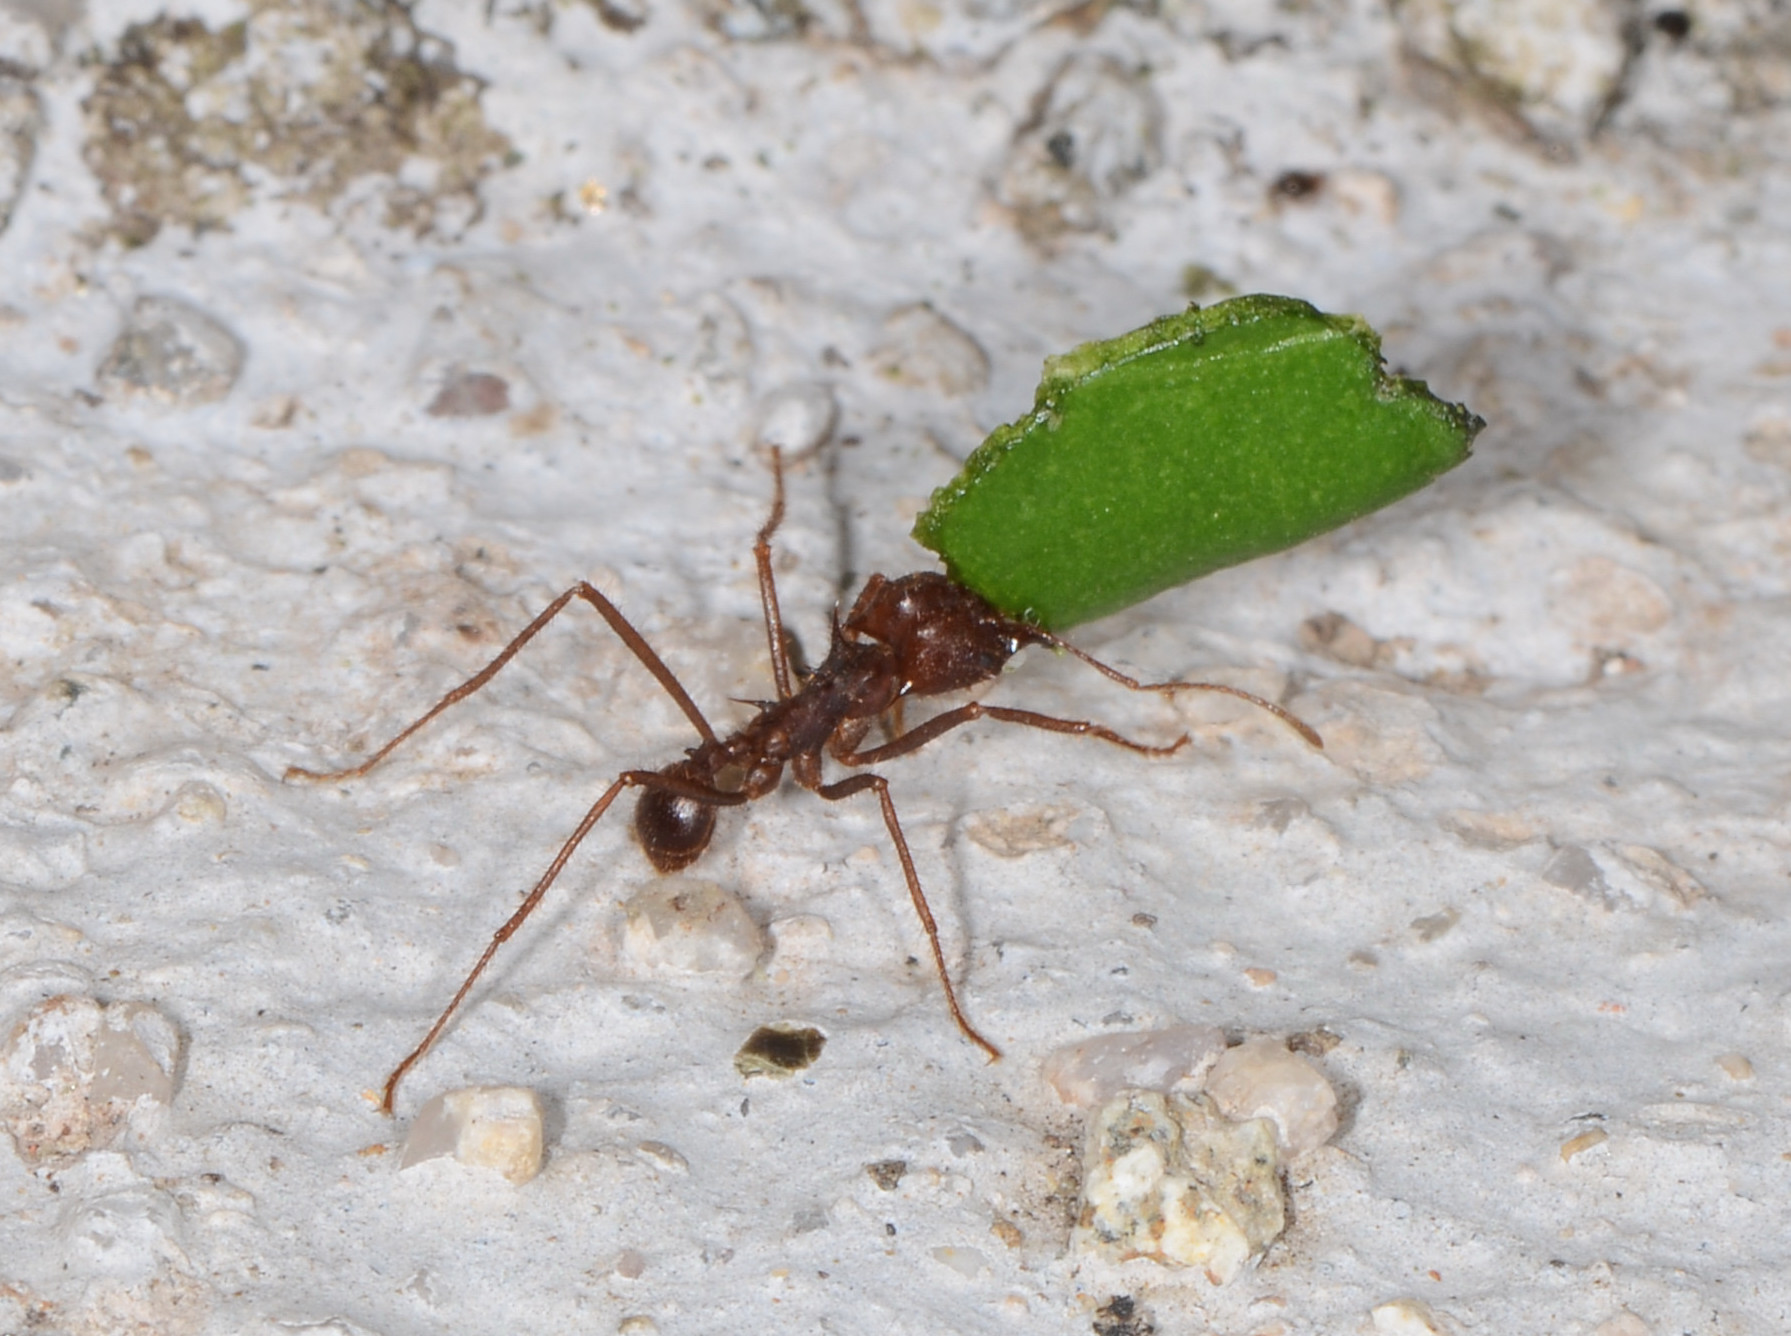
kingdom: Animalia
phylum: Arthropoda
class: Insecta
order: Hymenoptera
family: Formicidae
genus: Atta
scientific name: Atta mexicana
